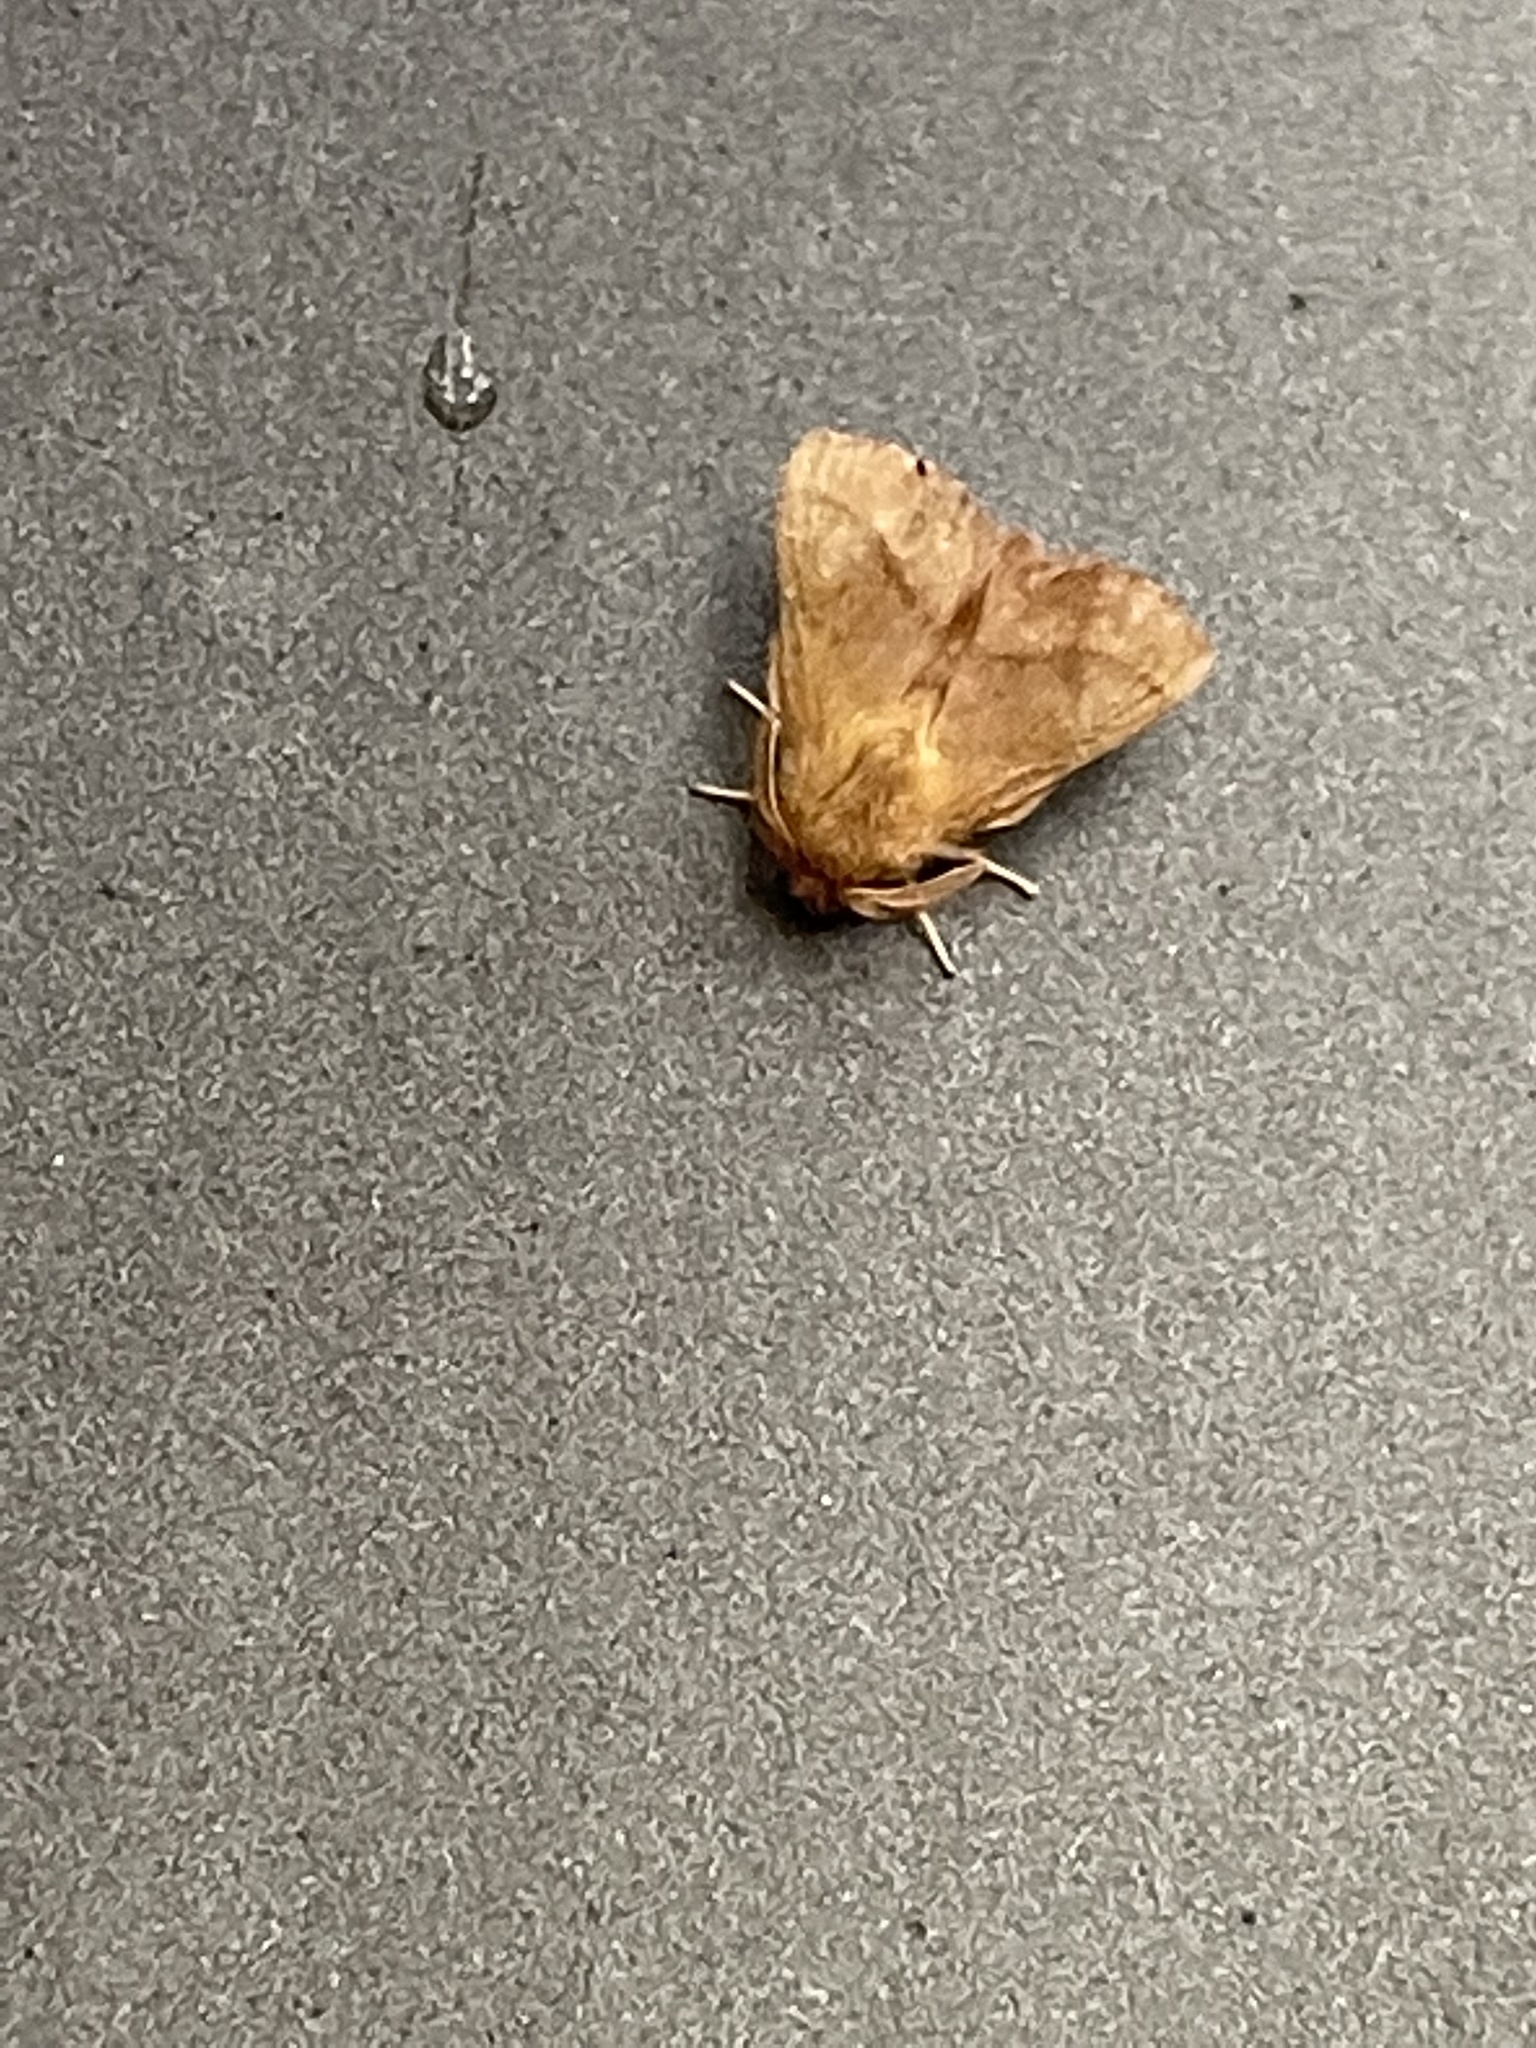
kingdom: Animalia
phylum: Arthropoda
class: Insecta
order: Lepidoptera
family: Lasiocampidae
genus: Malacosoma
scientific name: Malacosoma disstria
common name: Forest tent caterpillar
